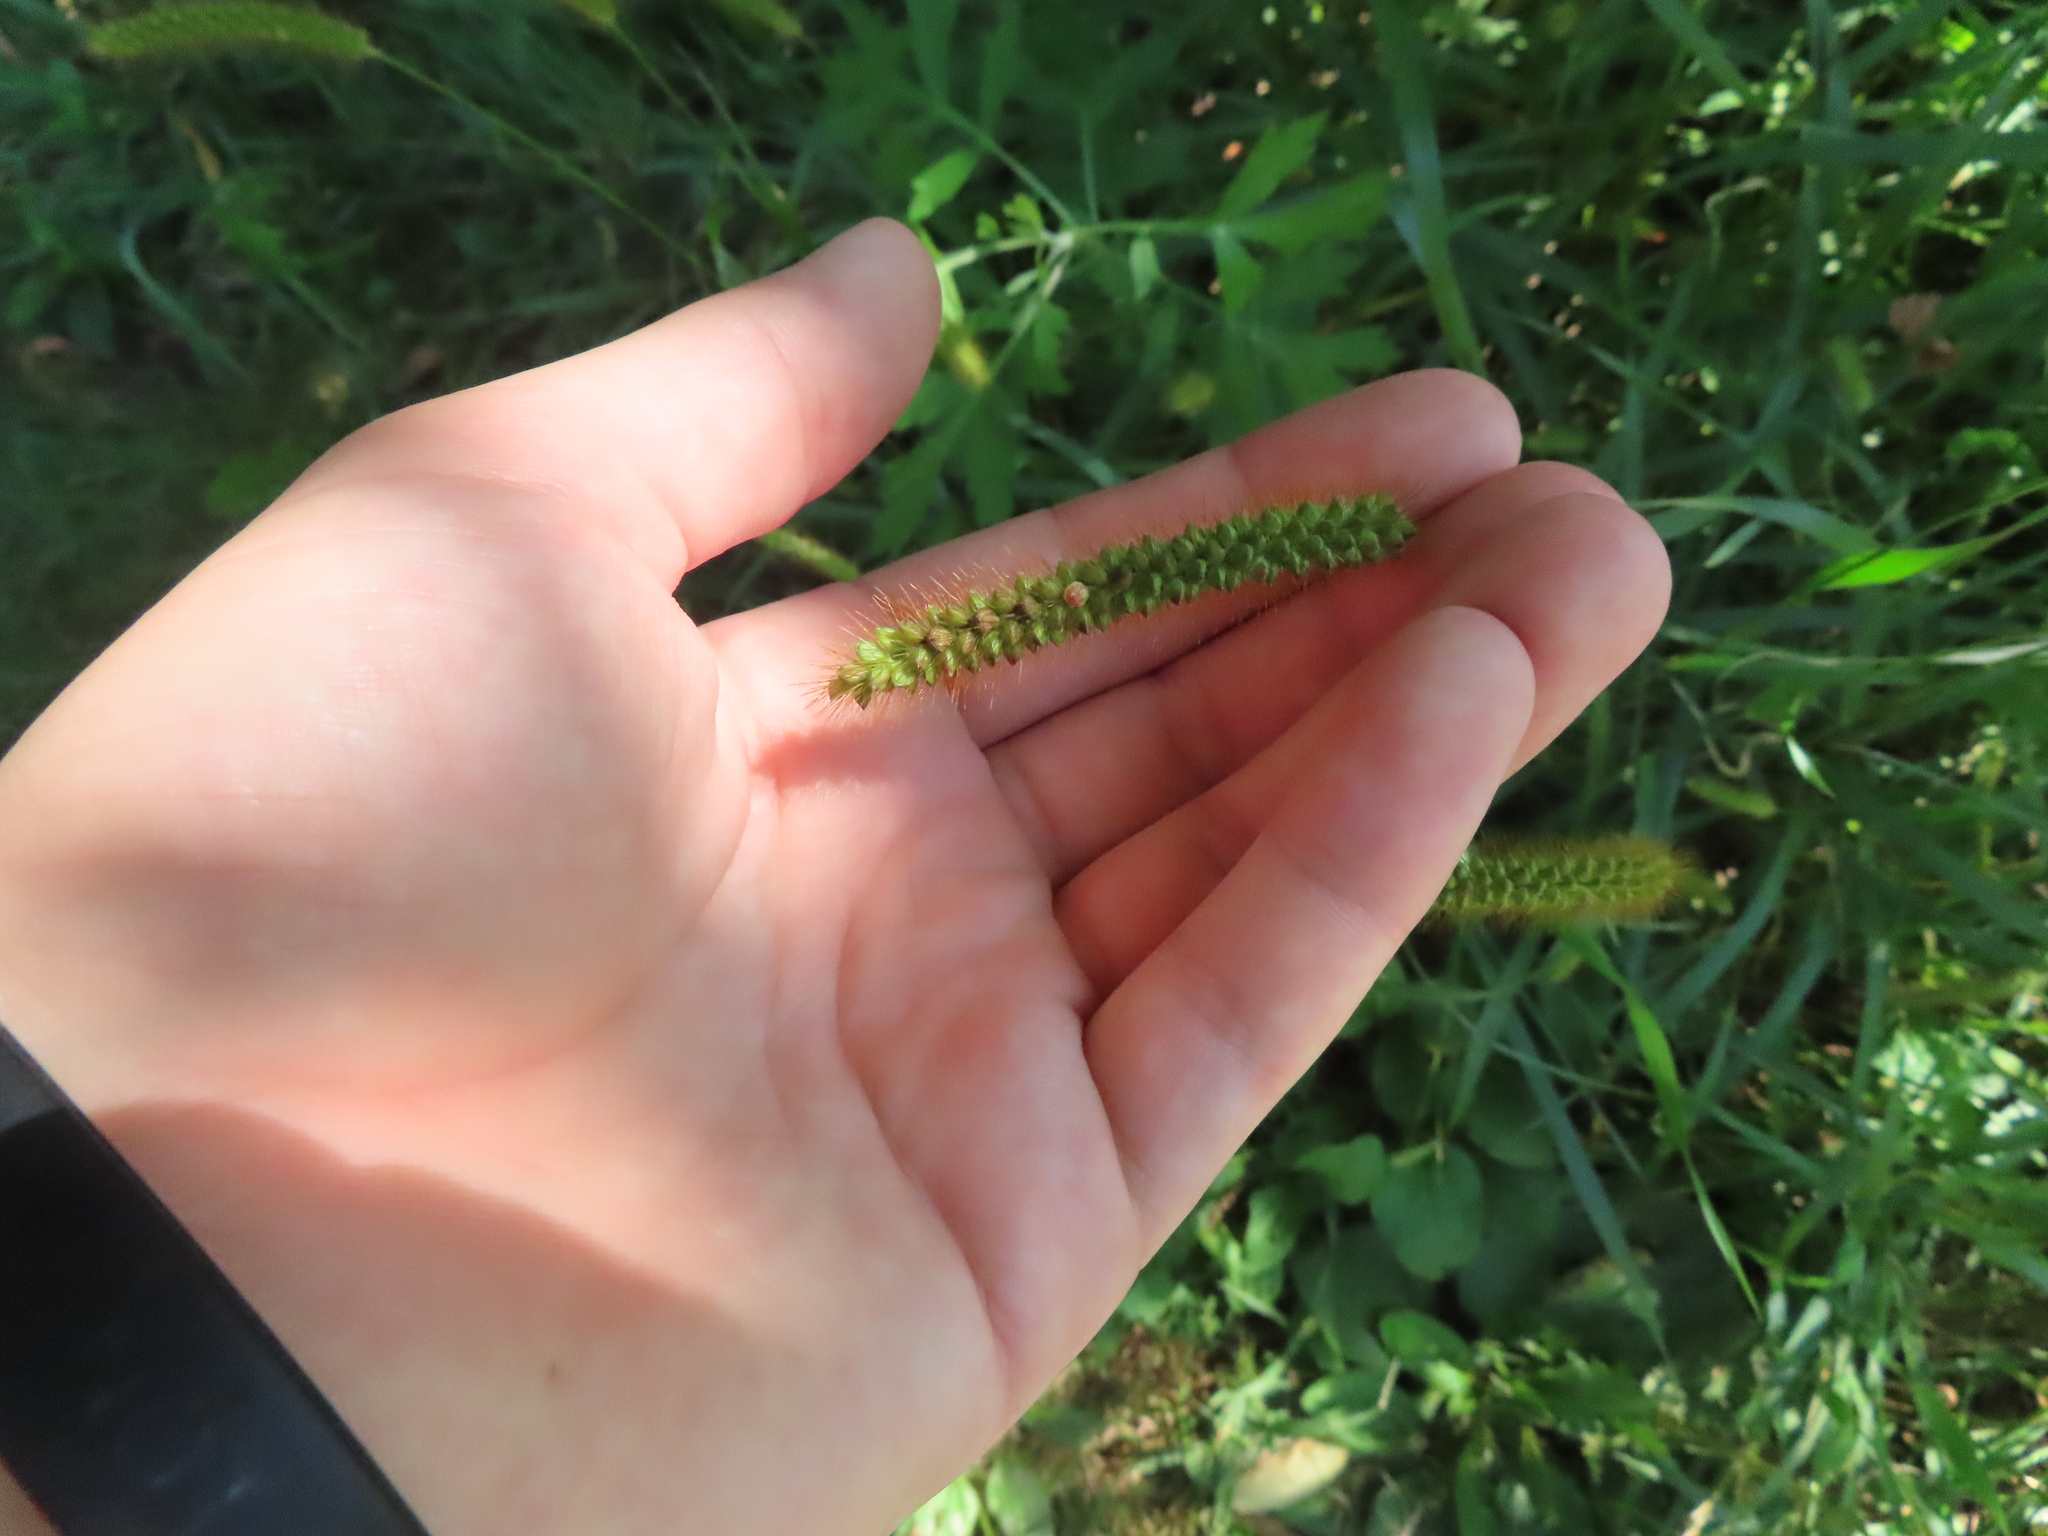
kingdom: Plantae
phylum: Tracheophyta
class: Liliopsida
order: Poales
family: Poaceae
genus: Setaria
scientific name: Setaria pumila
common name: Yellow bristle-grass
